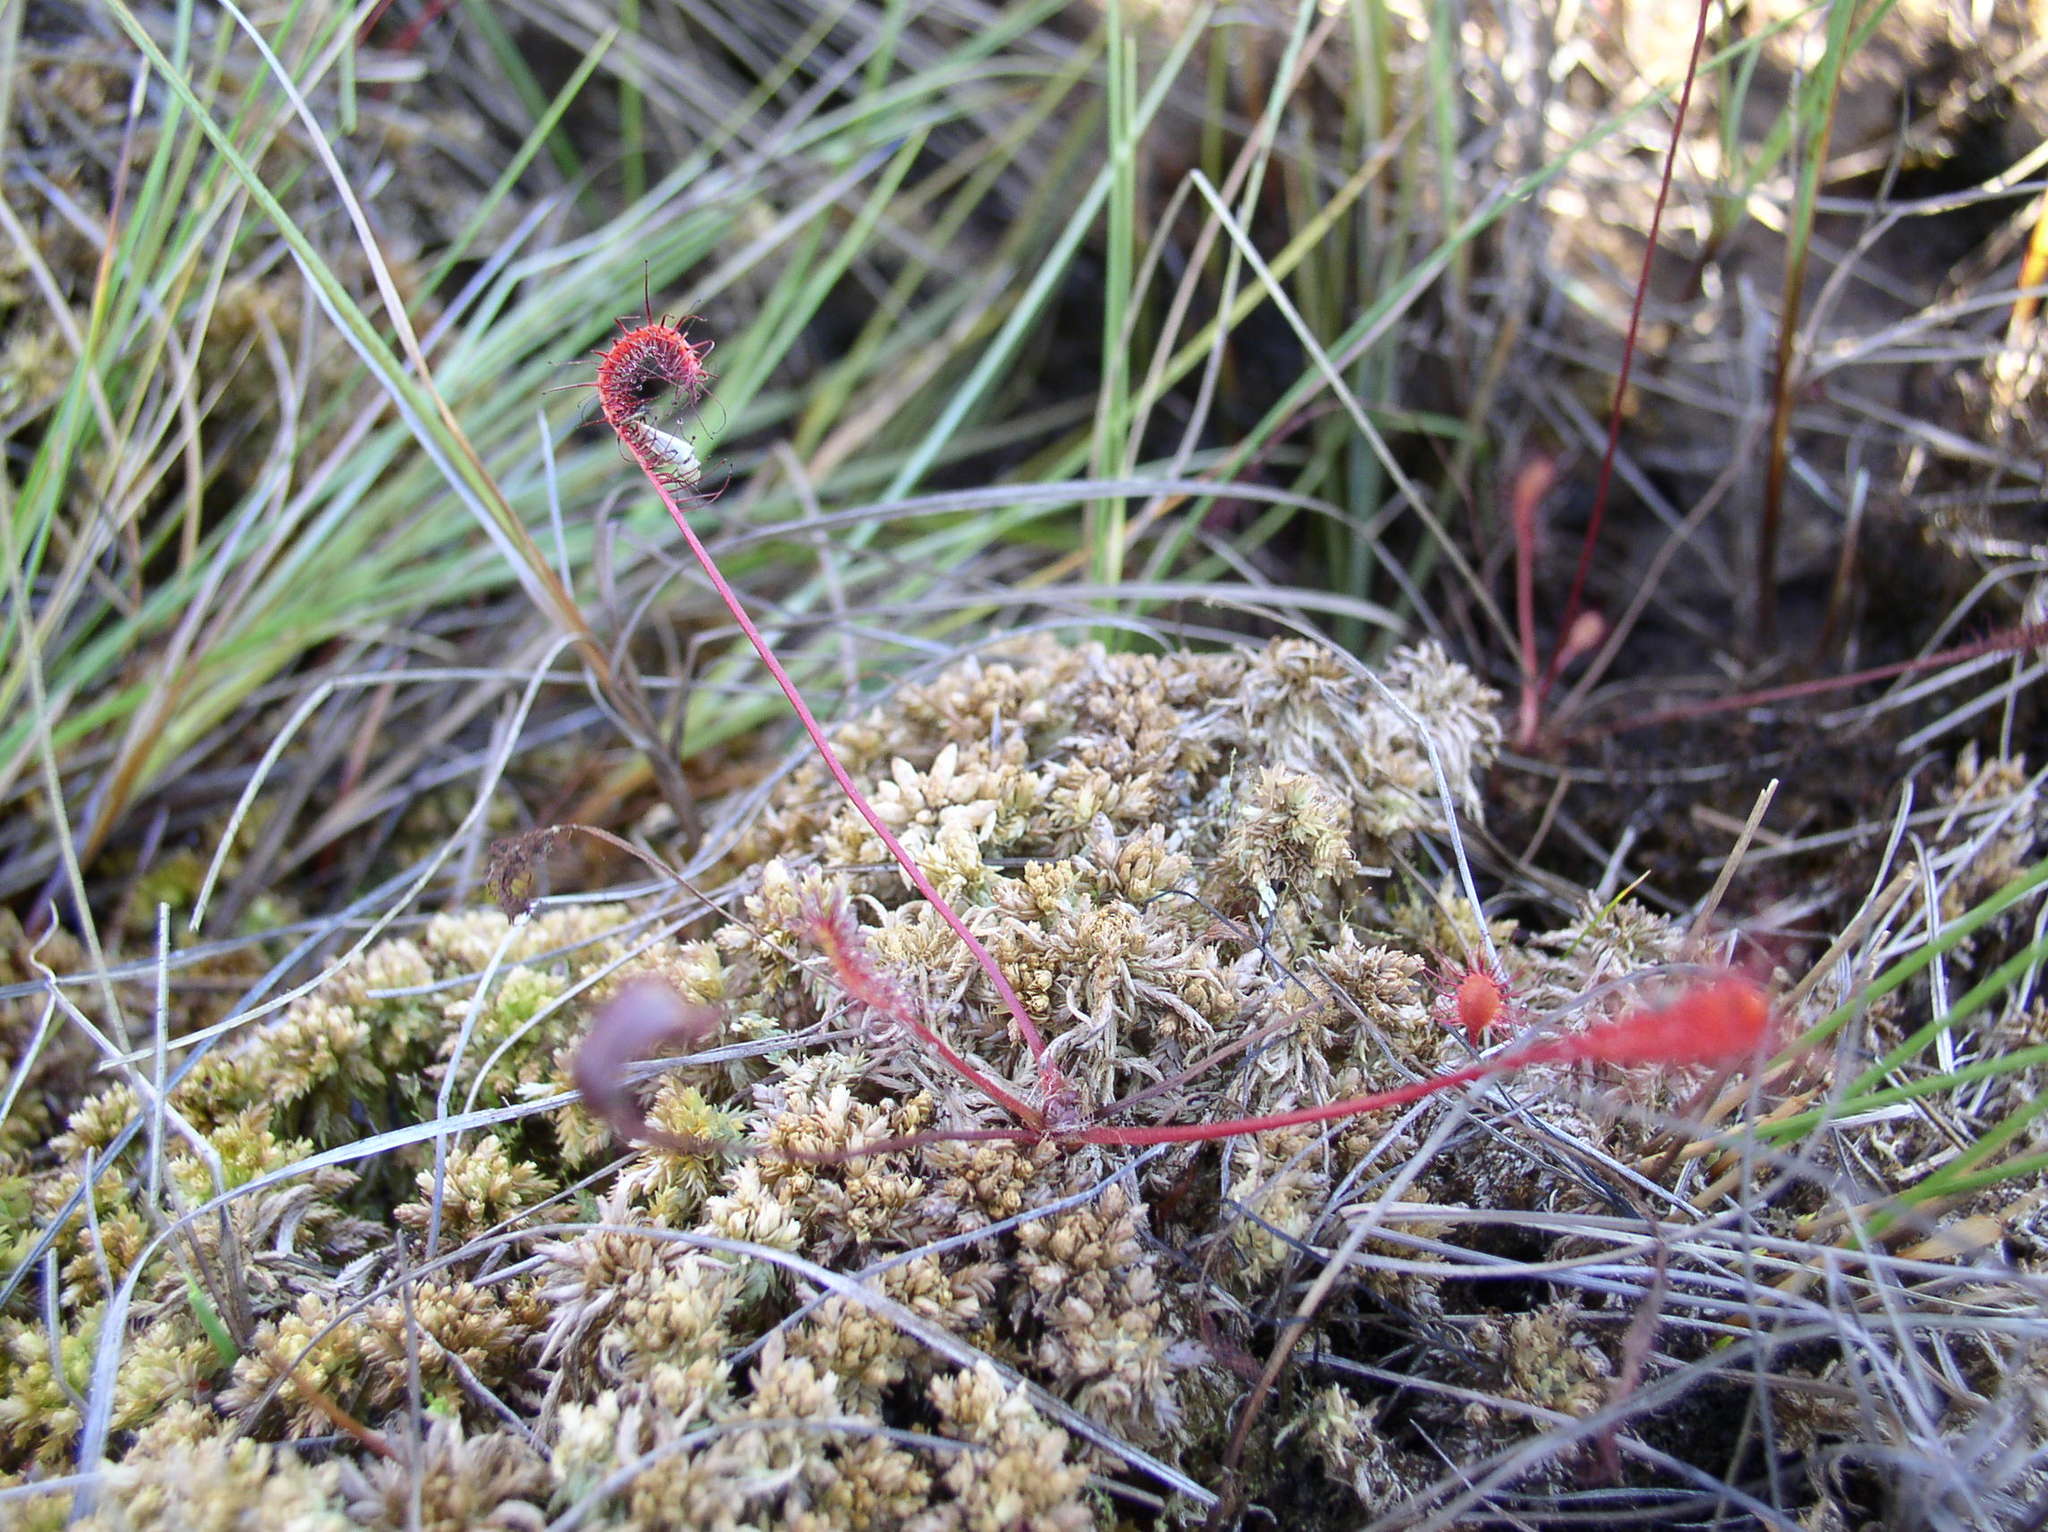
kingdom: Plantae
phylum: Tracheophyta
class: Magnoliopsida
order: Caryophyllales
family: Droseraceae
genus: Drosera
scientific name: Drosera anglica
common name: Great sundew
